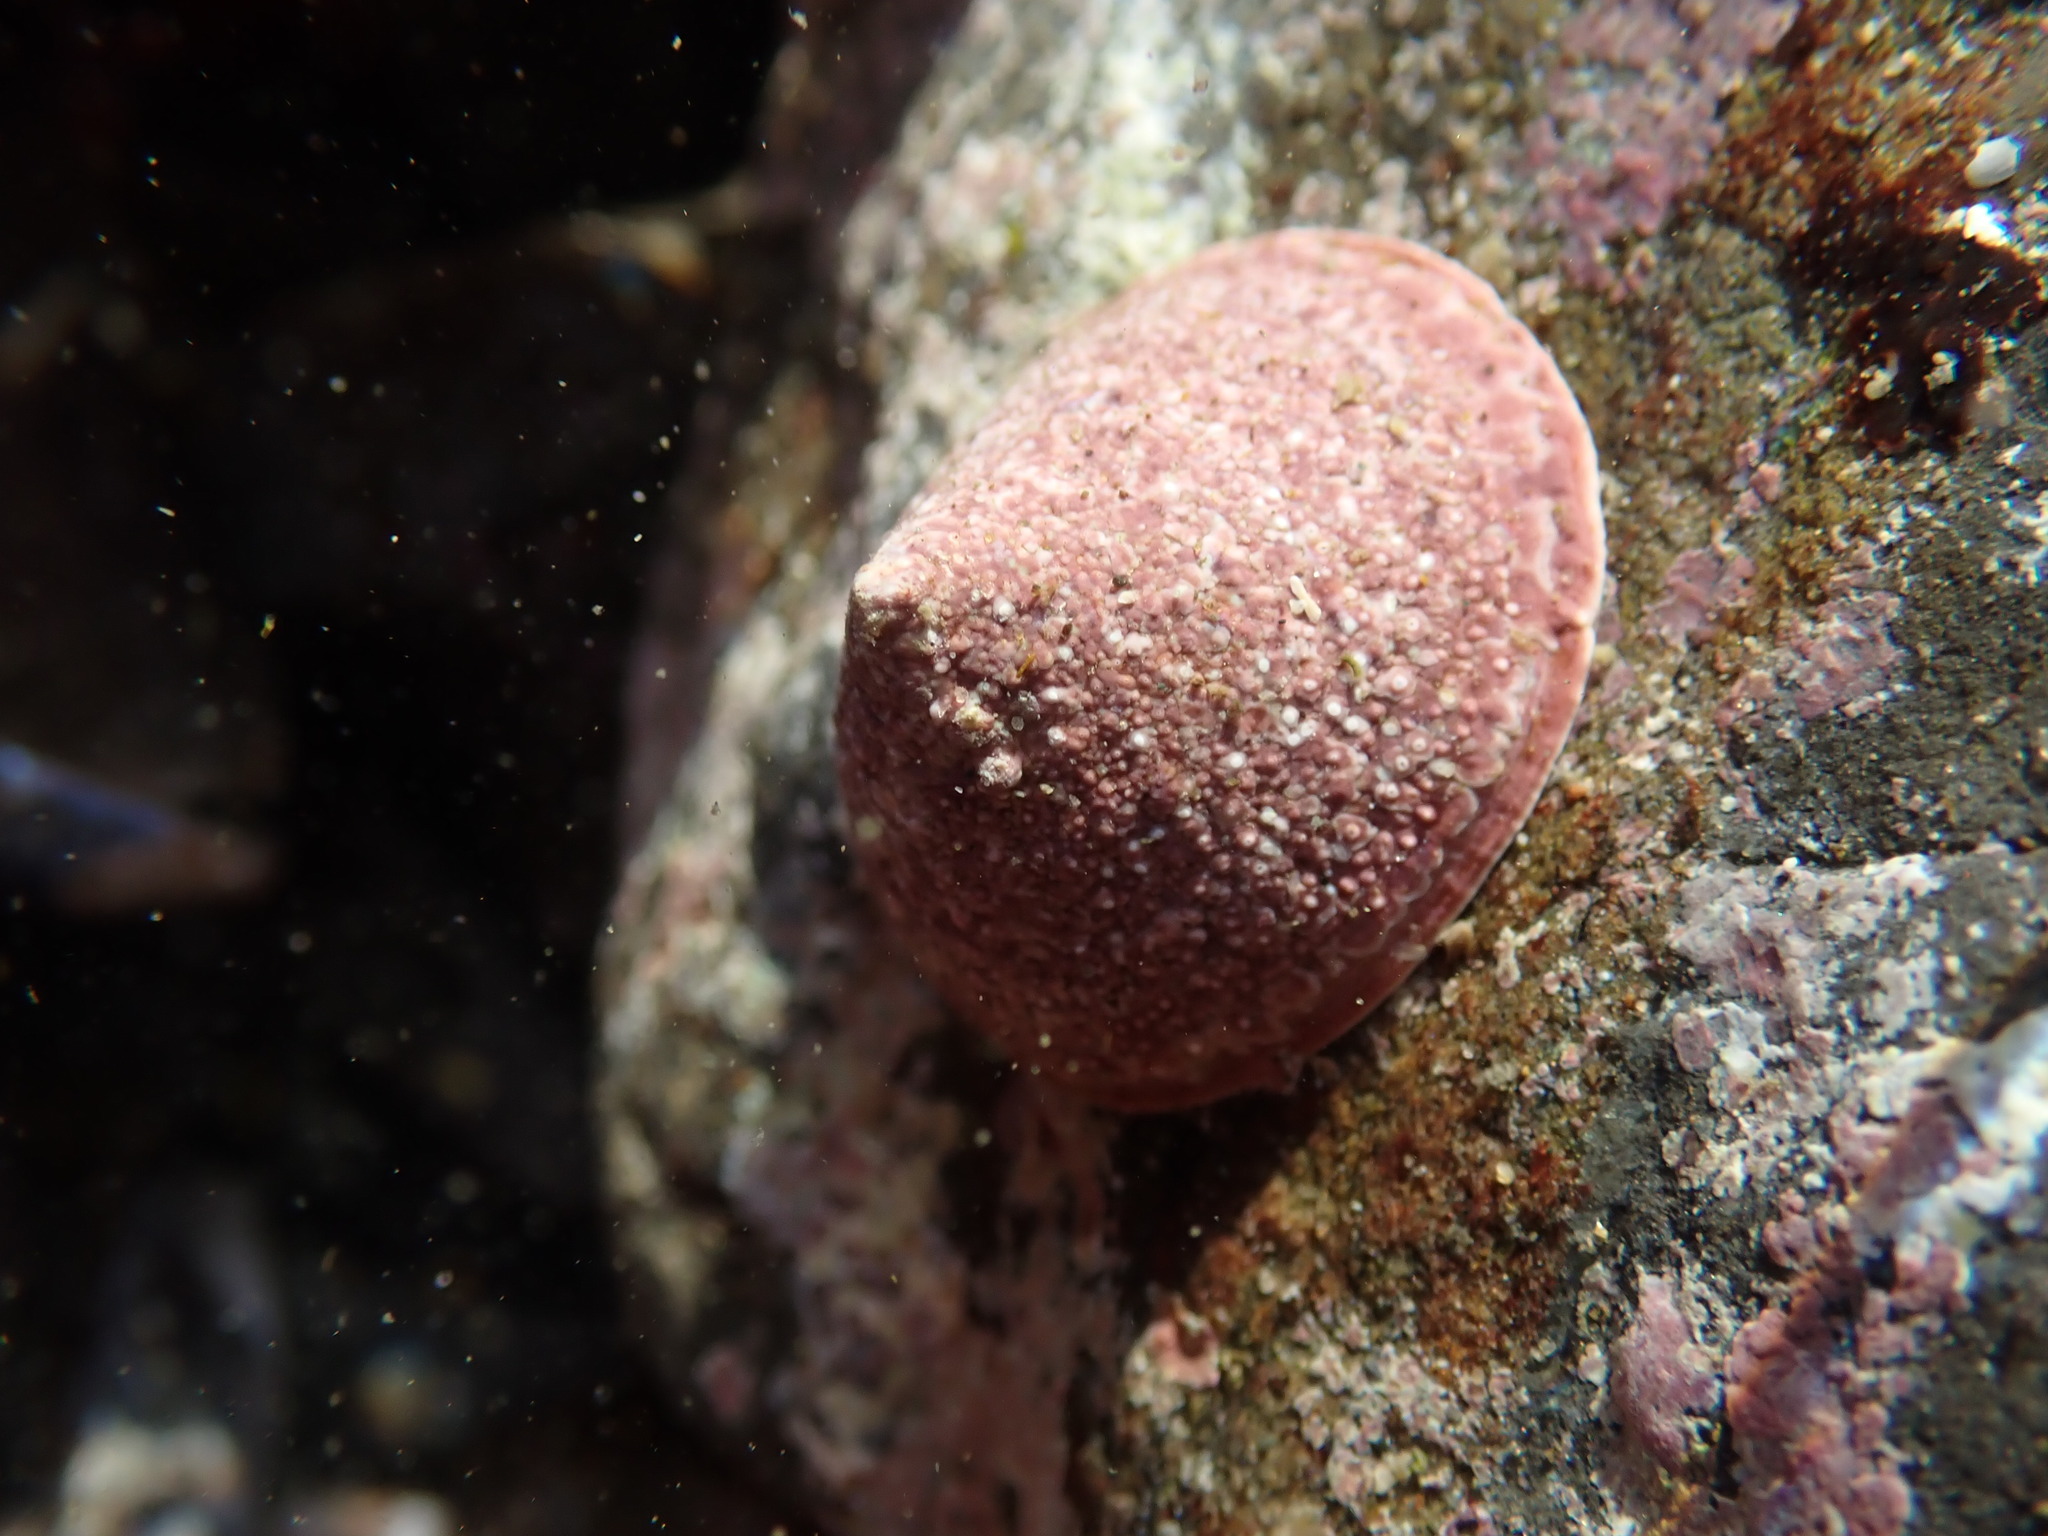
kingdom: Animalia
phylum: Mollusca
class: Gastropoda
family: Acmaeidae
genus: Acmaea
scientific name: Acmaea mitra
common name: Pacific white cap limpet
